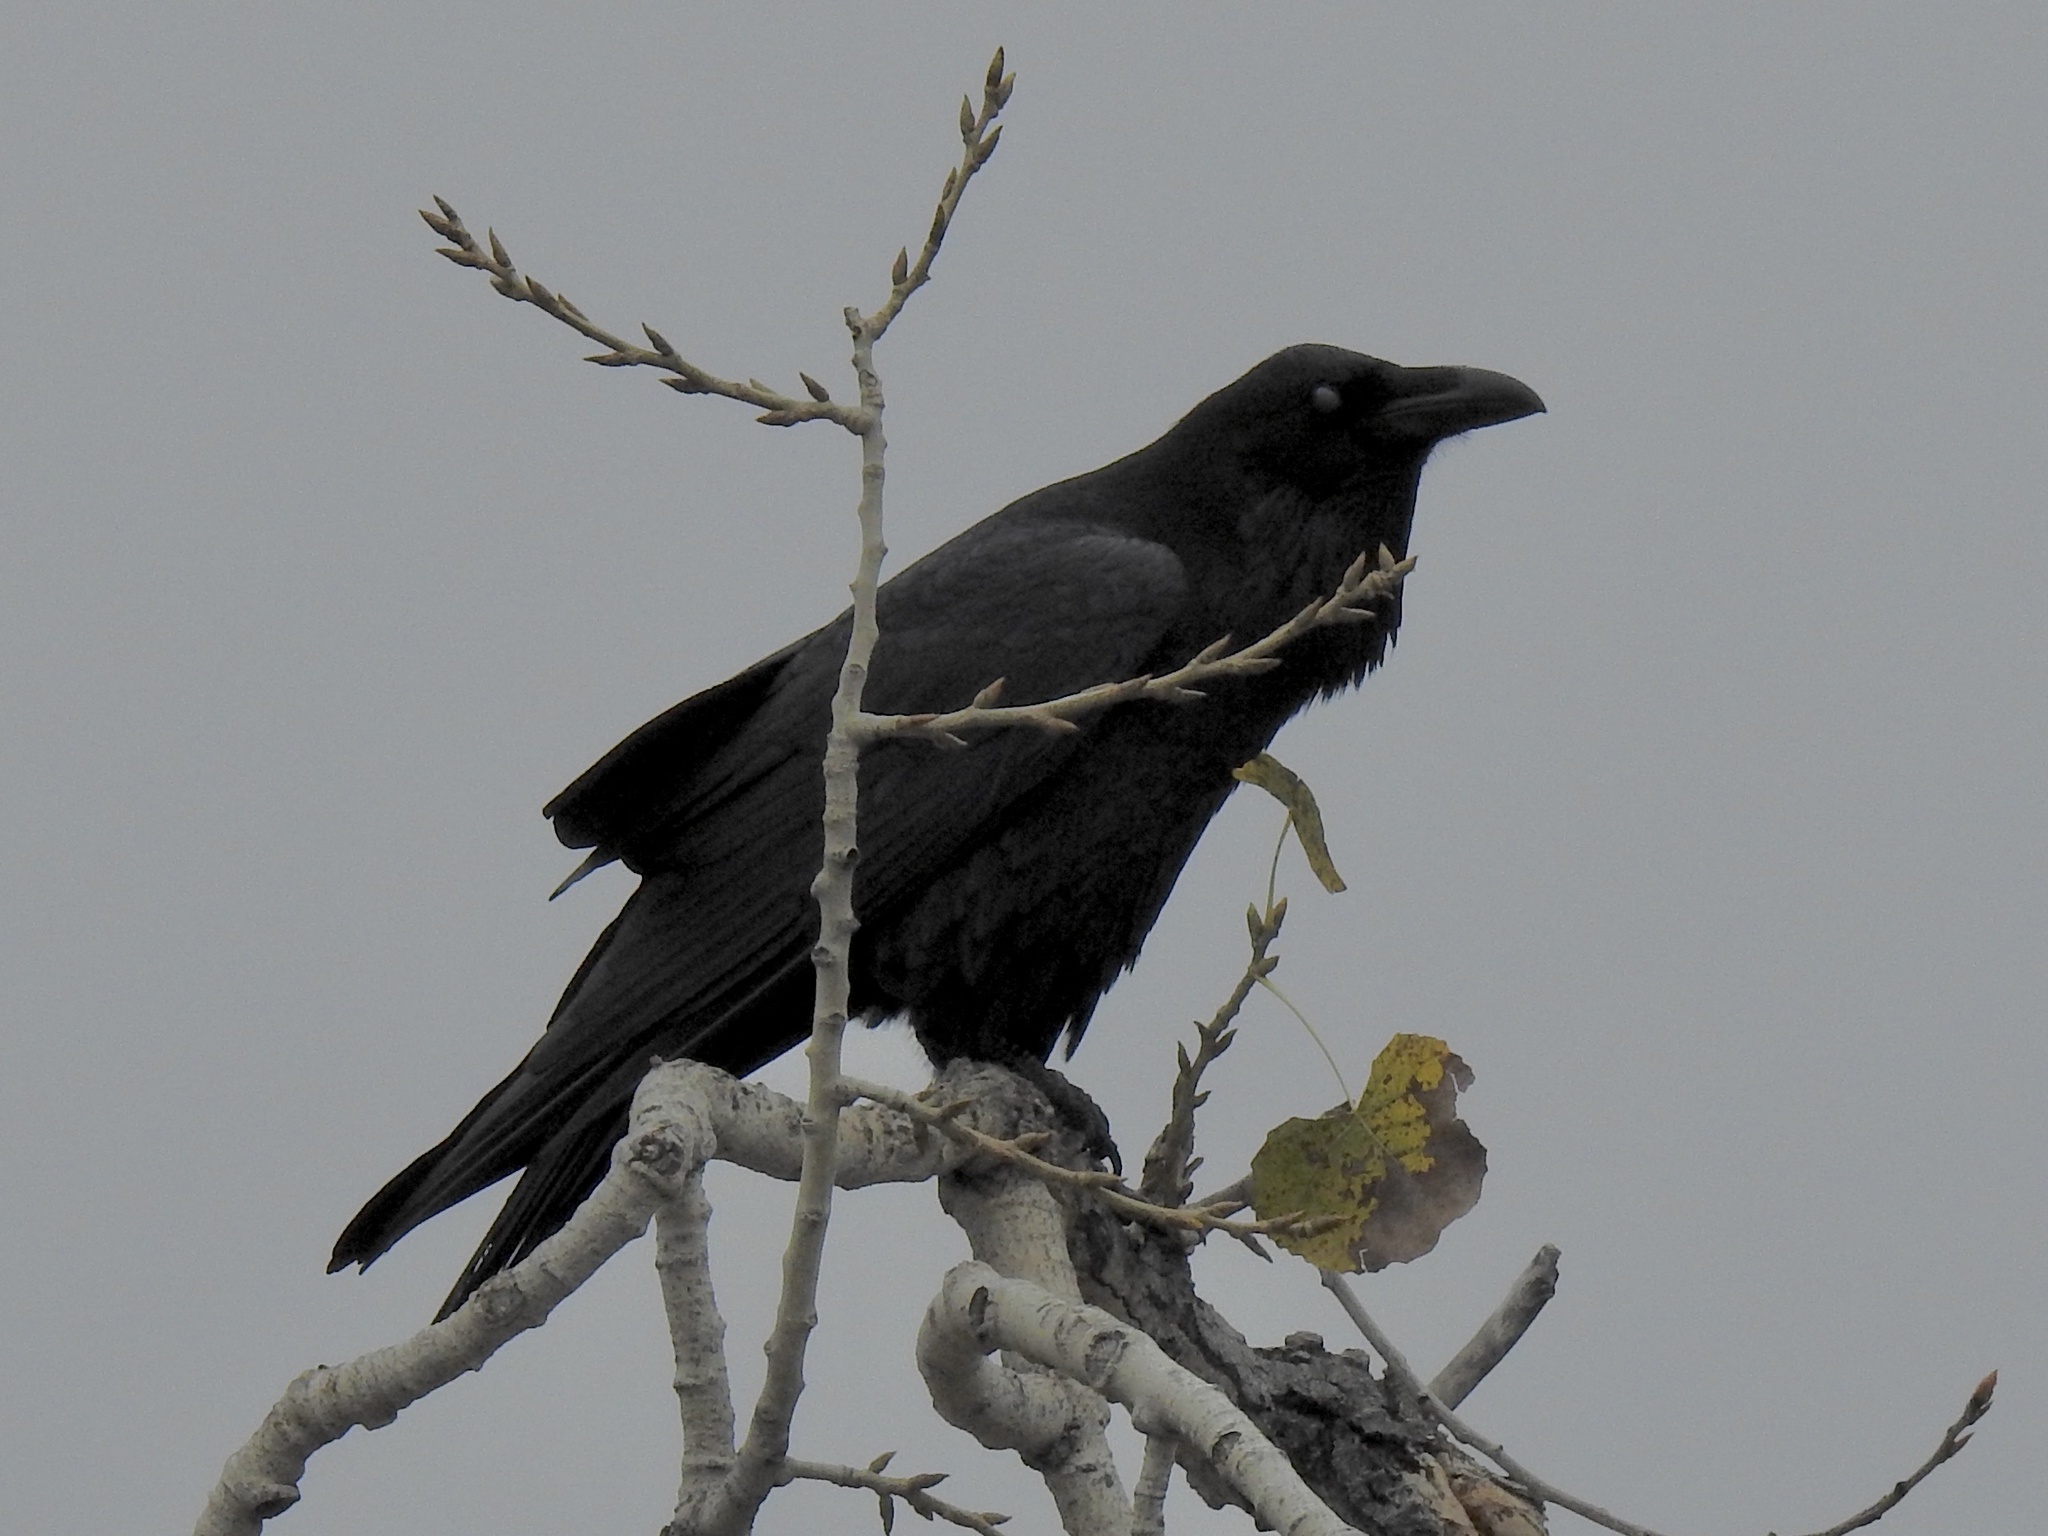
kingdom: Animalia
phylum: Chordata
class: Aves
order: Passeriformes
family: Corvidae
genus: Corvus
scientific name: Corvus corax
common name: Common raven
